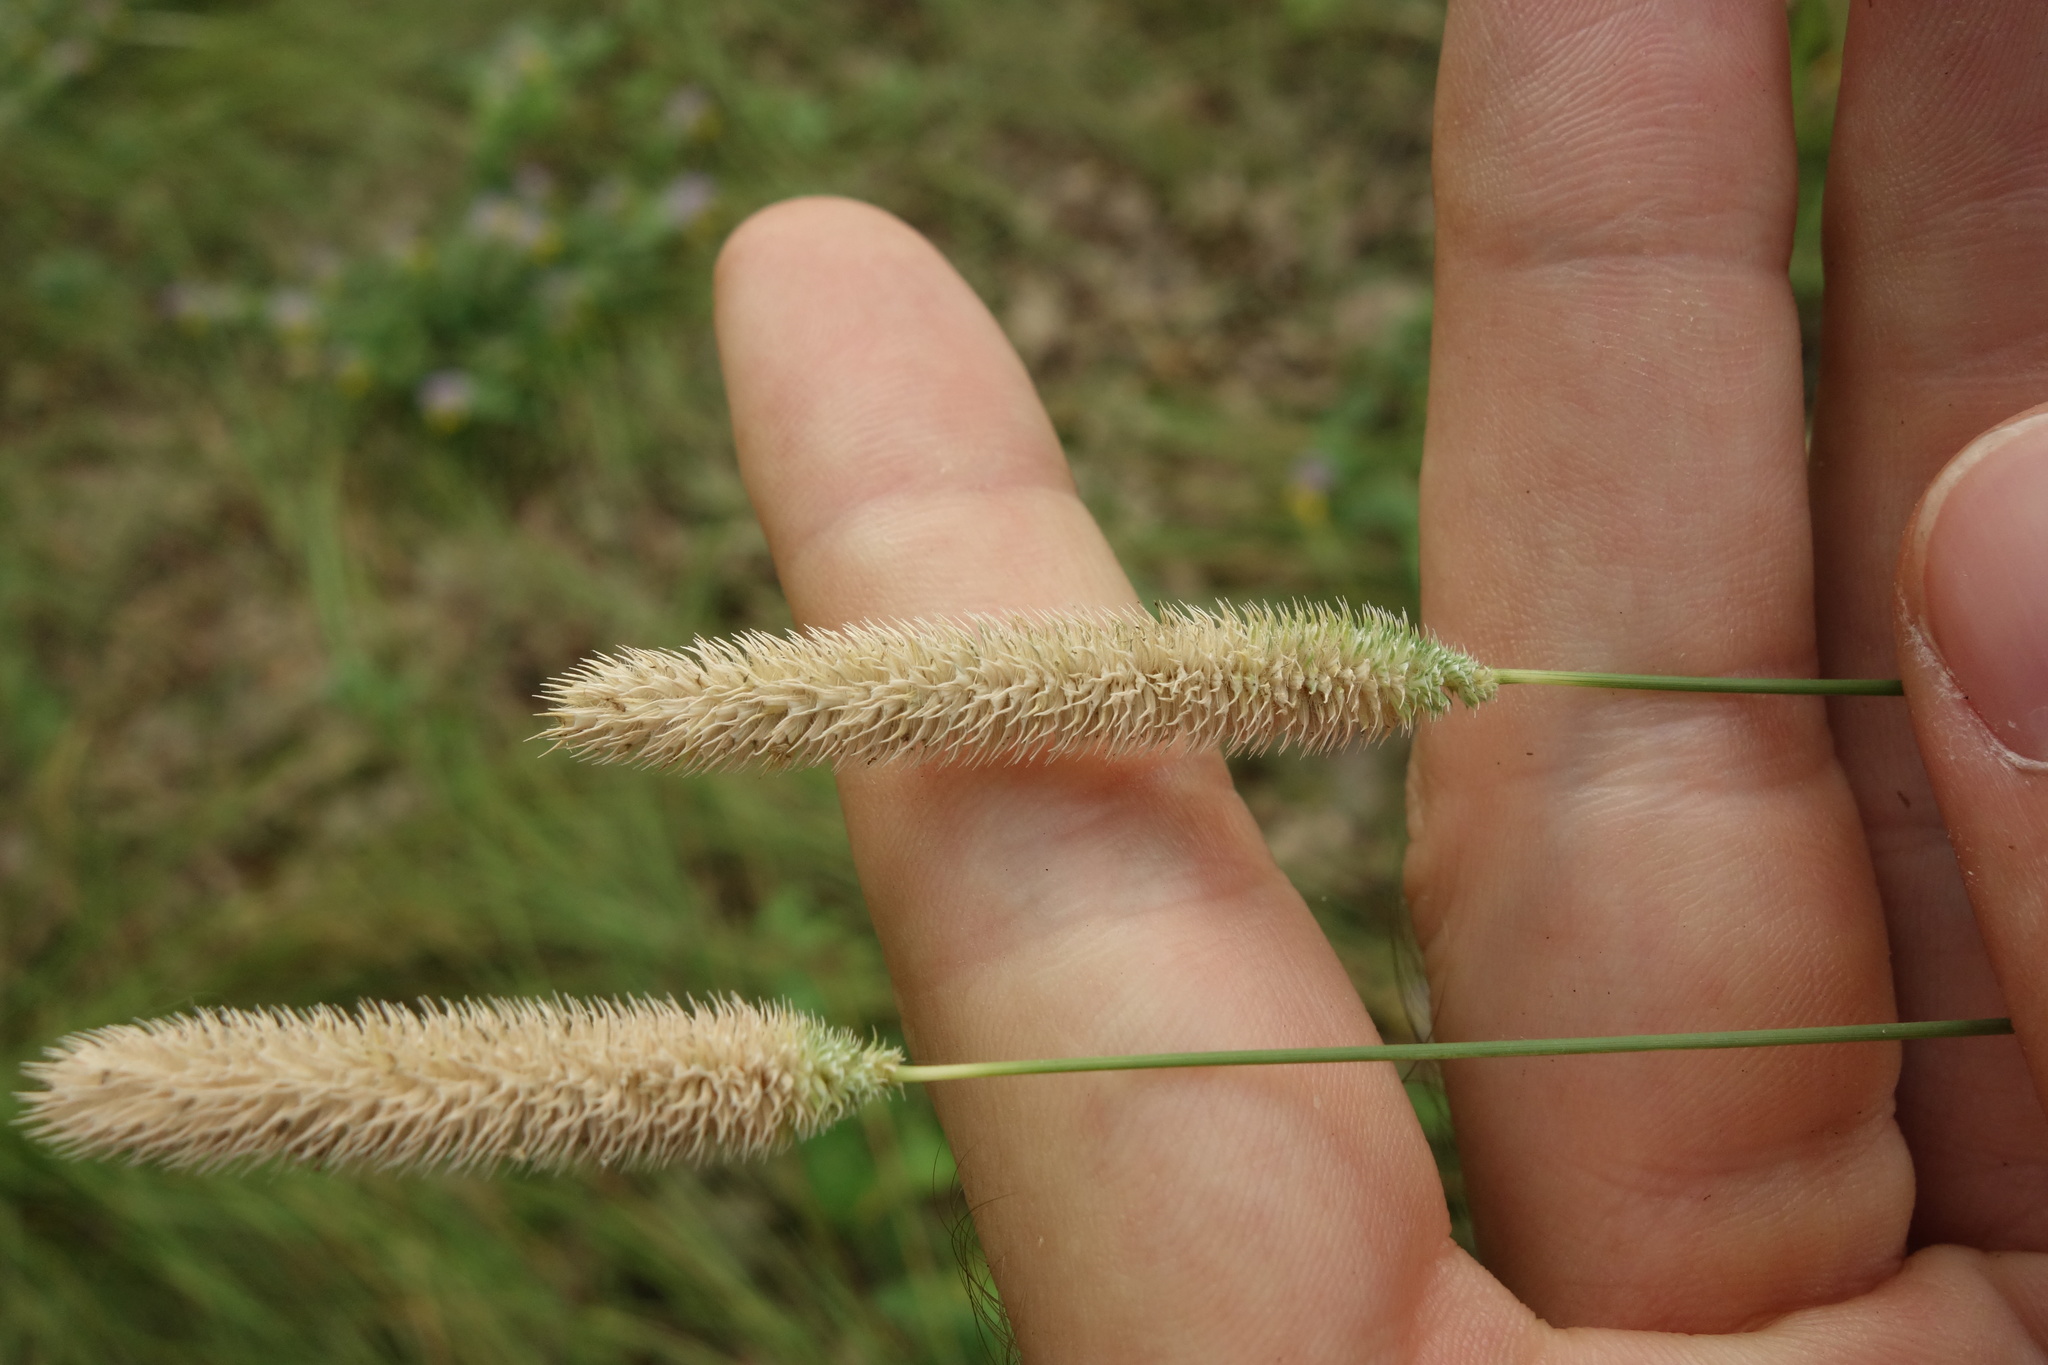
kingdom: Plantae
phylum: Tracheophyta
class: Liliopsida
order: Poales
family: Poaceae
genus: Phleum
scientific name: Phleum pratense
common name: Timothy grass
